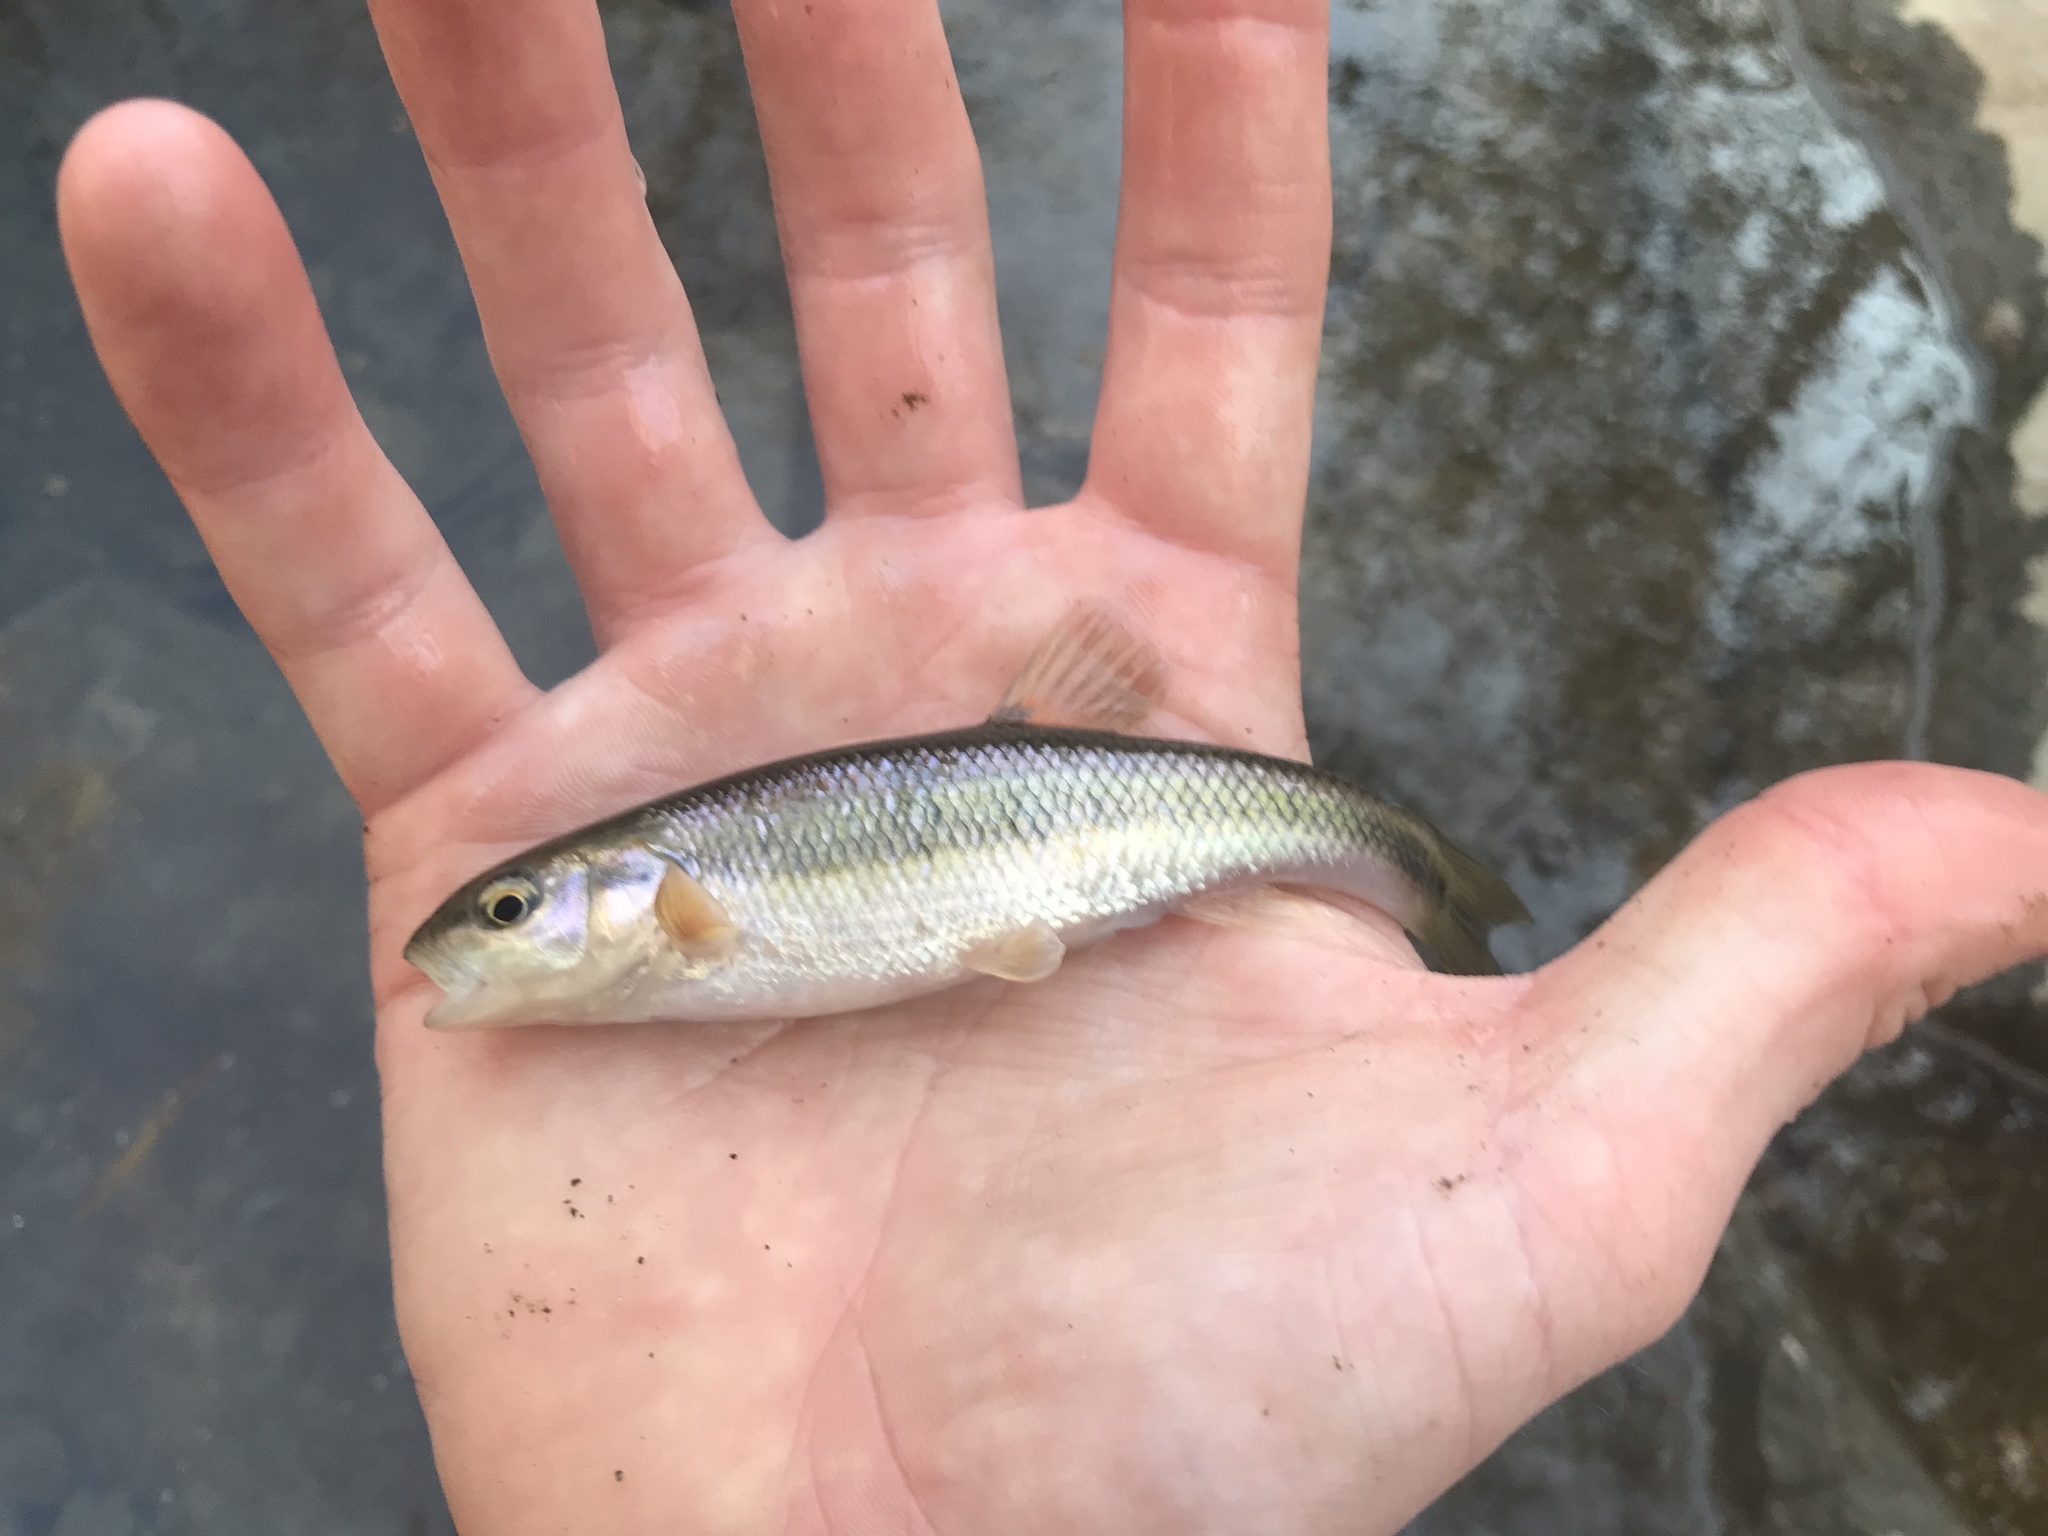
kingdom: Animalia
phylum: Chordata
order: Cypriniformes
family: Cyprinidae
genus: Semotilus
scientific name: Semotilus atromaculatus
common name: Creek chub
